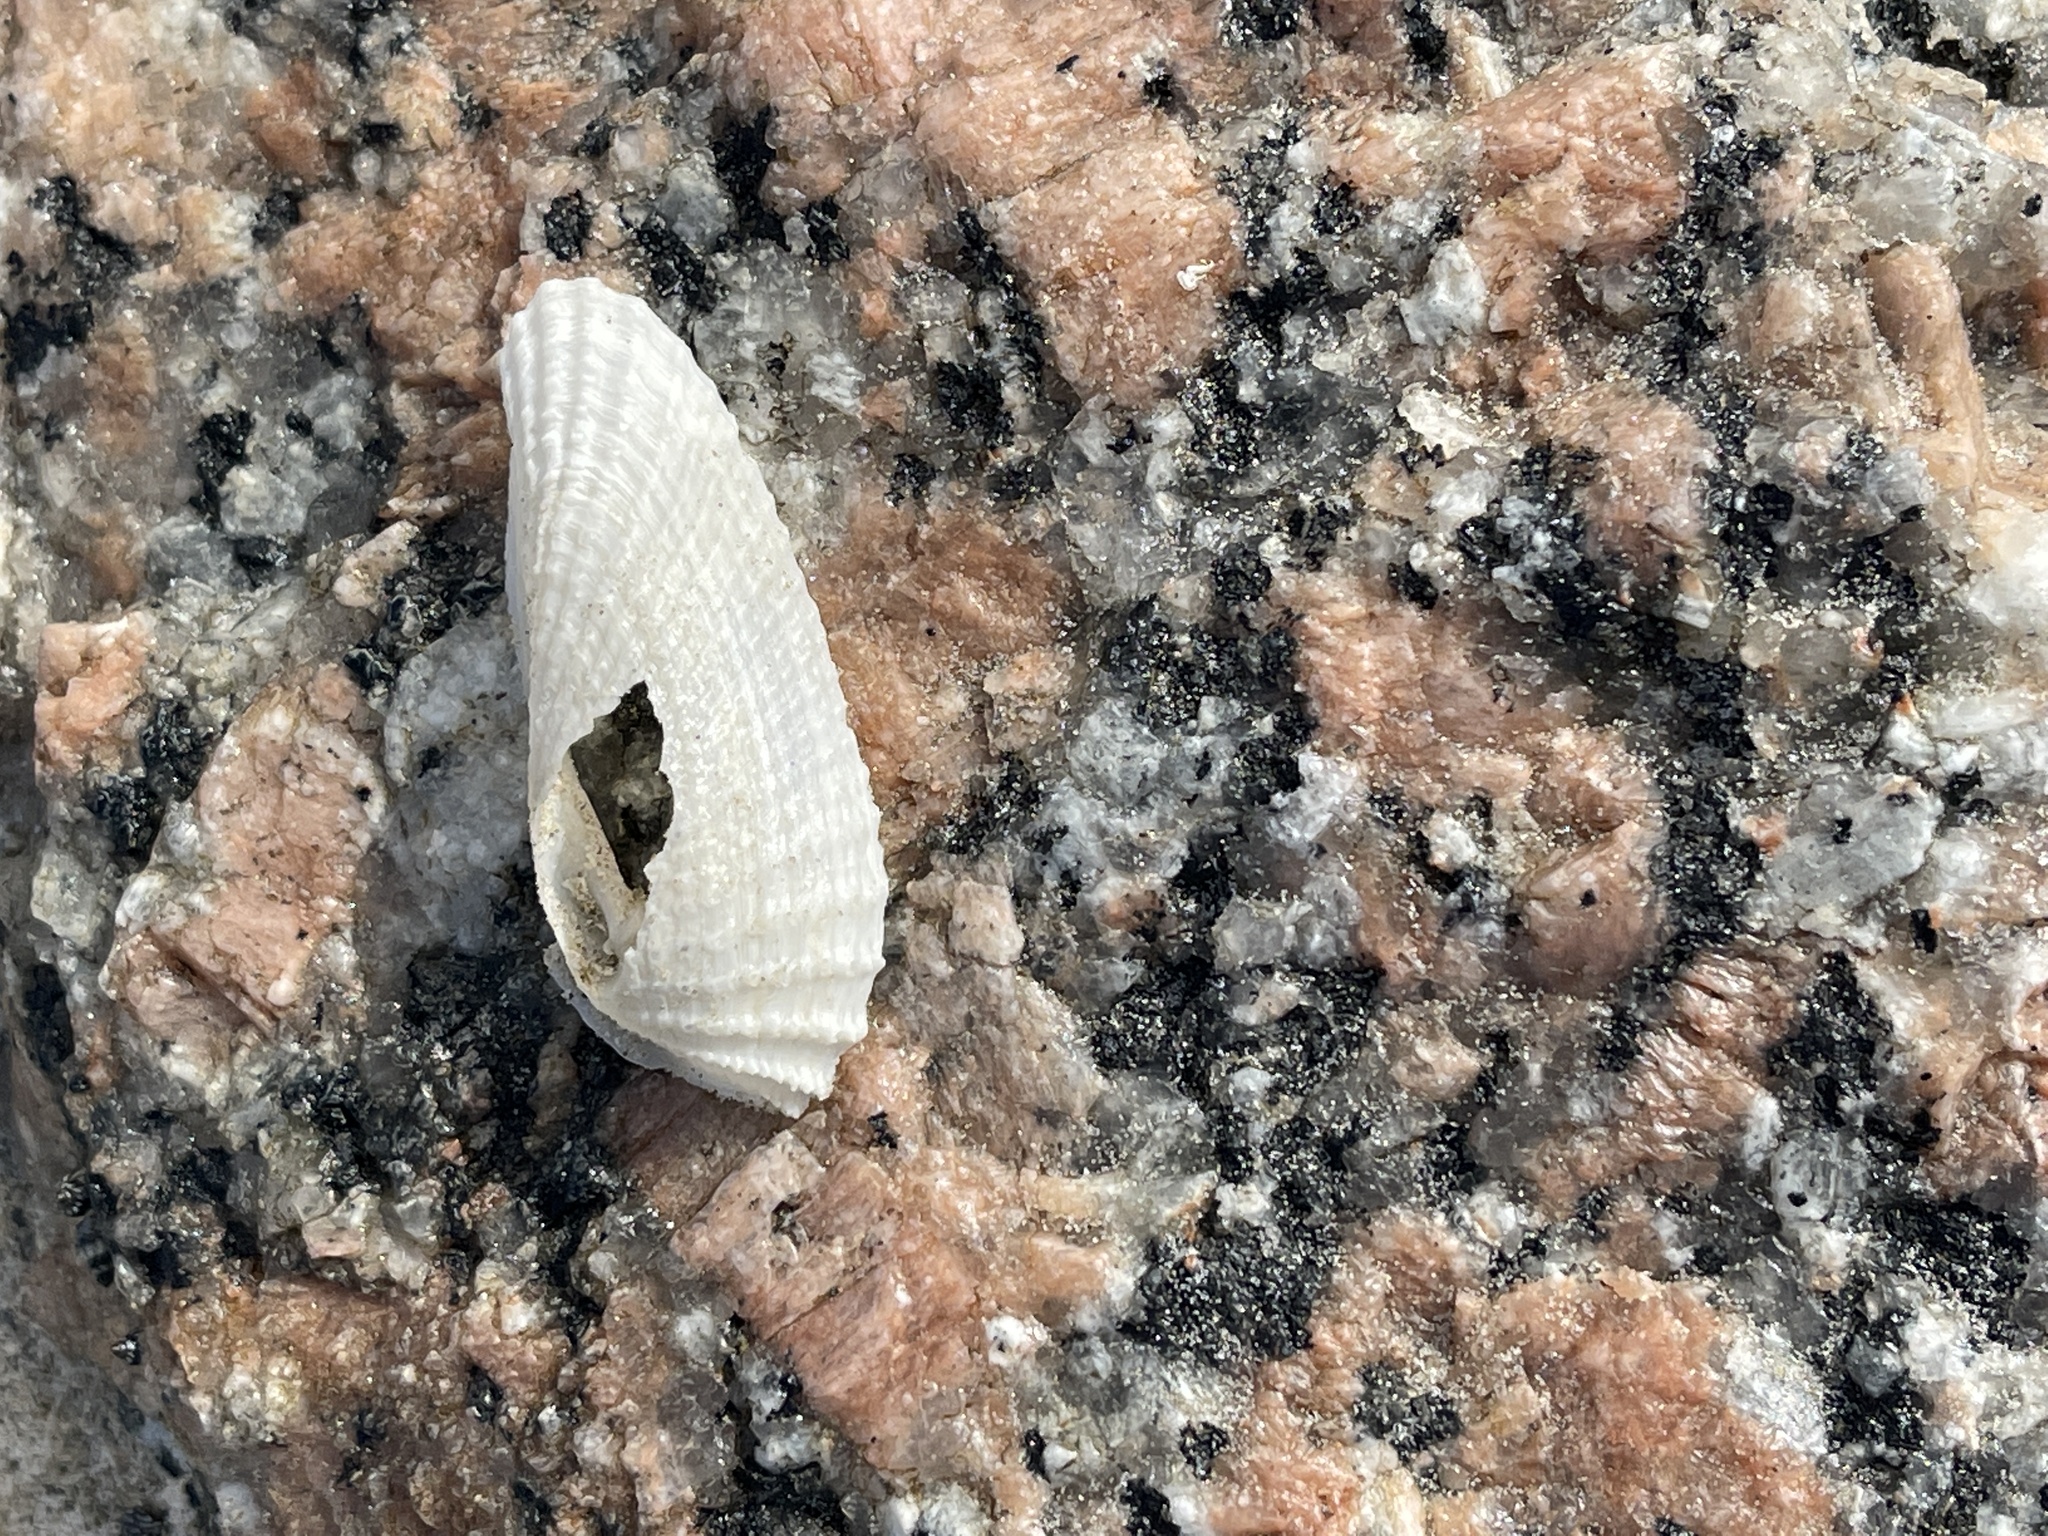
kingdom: Animalia
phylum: Mollusca
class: Bivalvia
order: Myida
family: Pholadidae
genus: Cyrtopleura
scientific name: Cyrtopleura costata
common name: Angel wing
